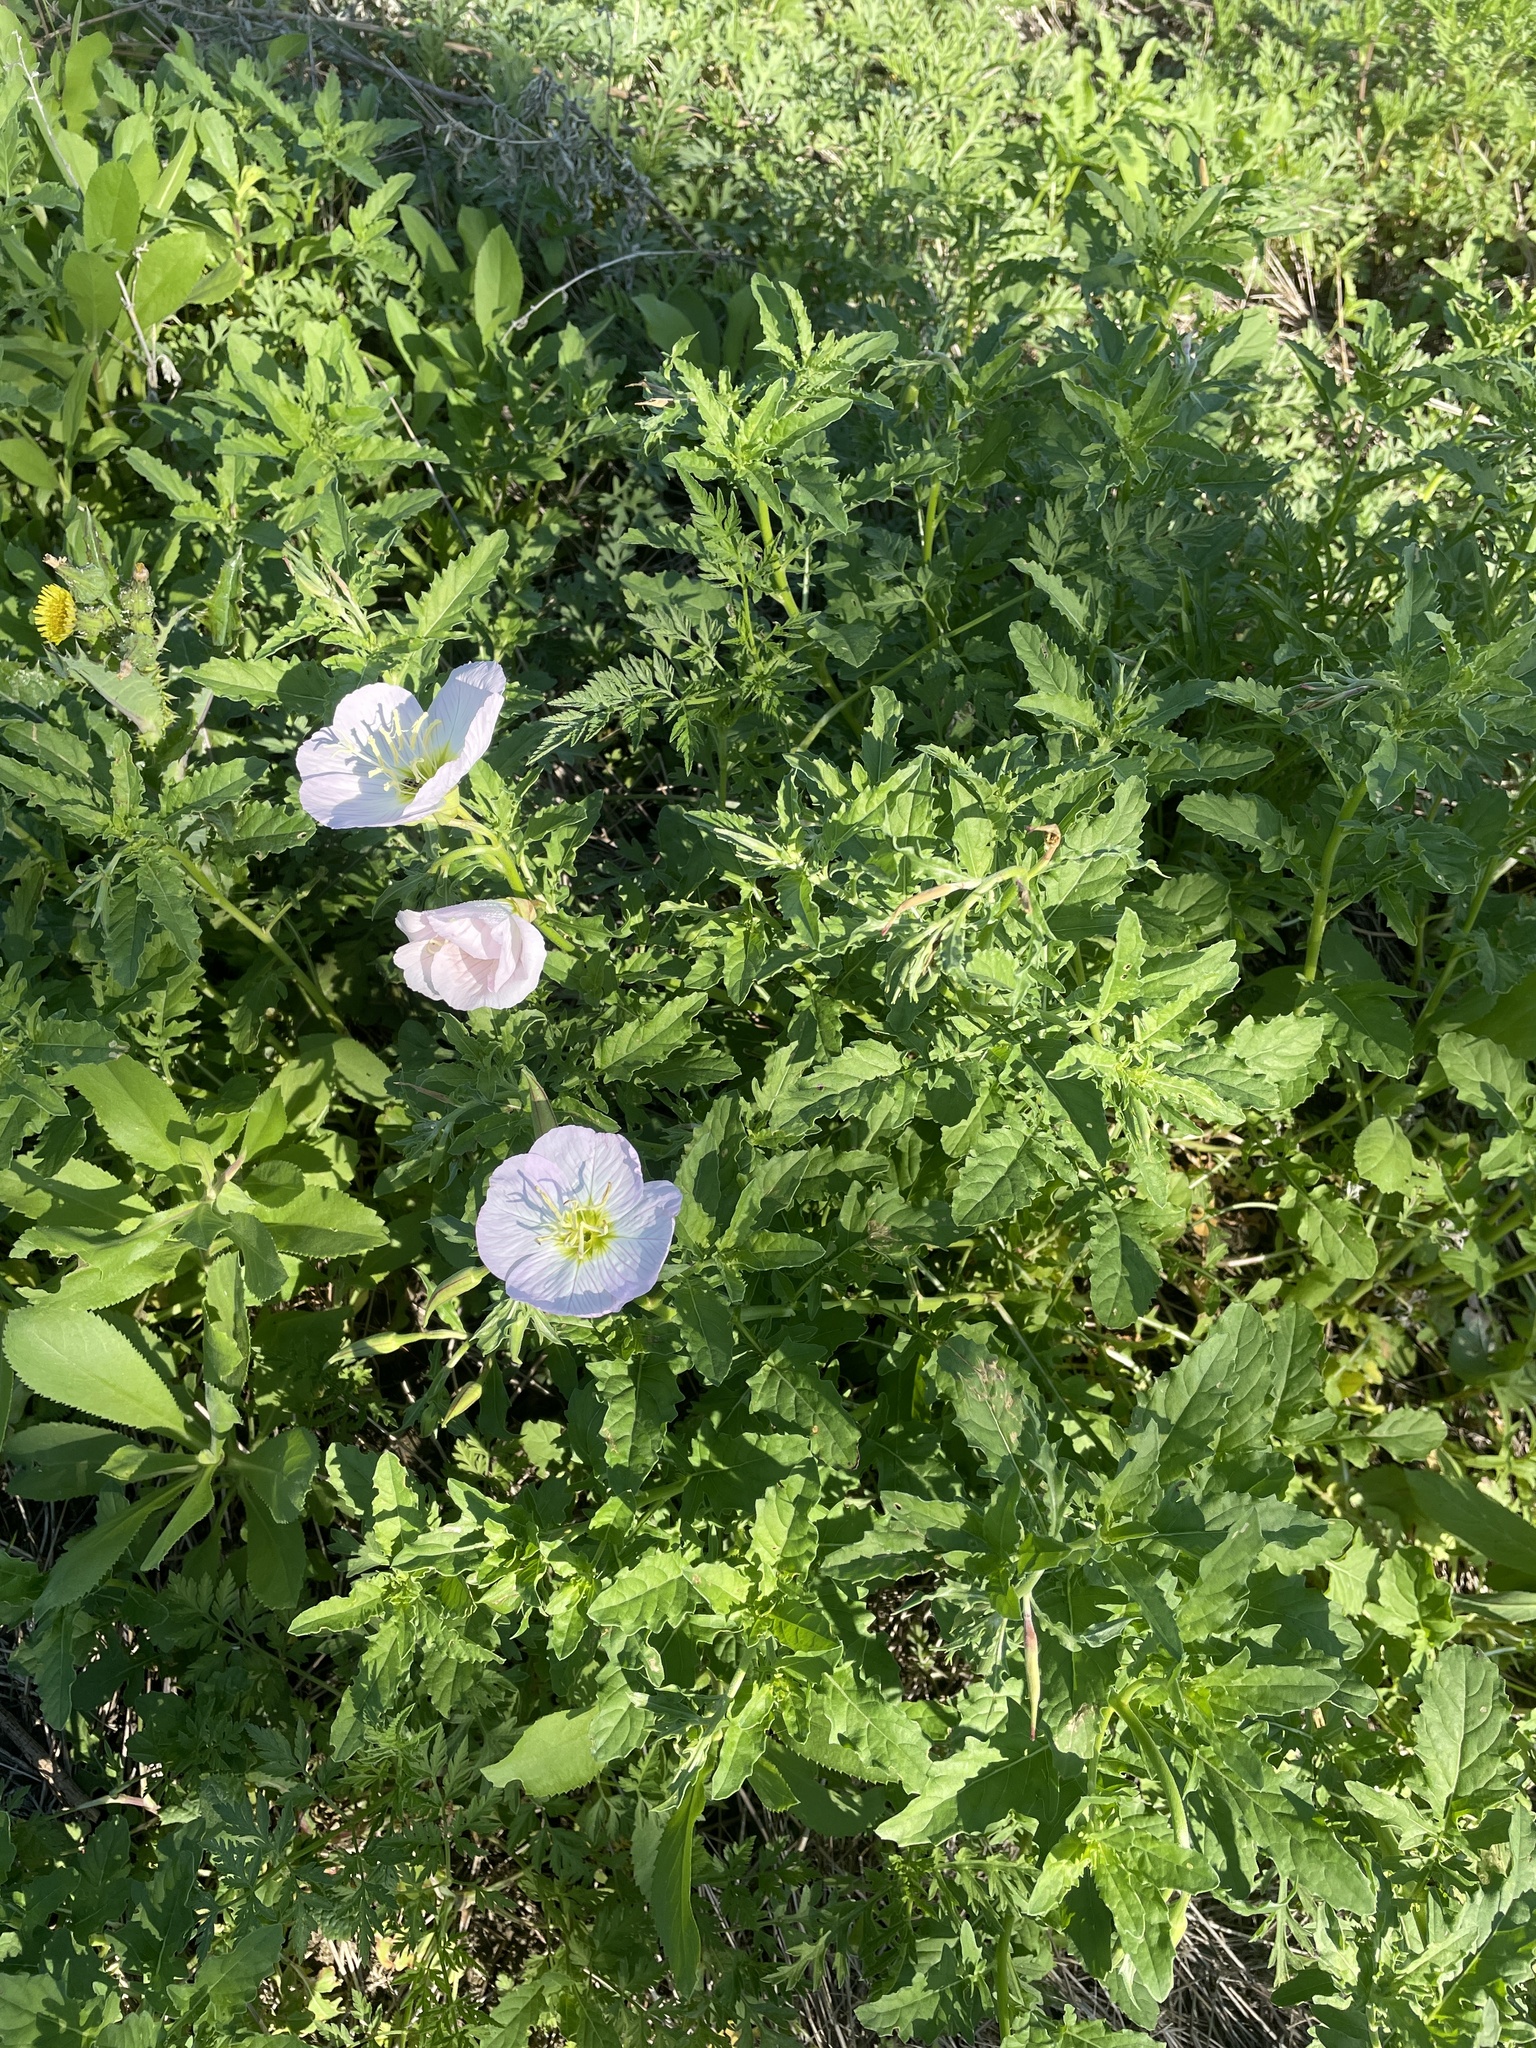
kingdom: Plantae
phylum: Tracheophyta
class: Magnoliopsida
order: Myrtales
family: Onagraceae
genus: Oenothera
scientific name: Oenothera speciosa
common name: White evening-primrose
